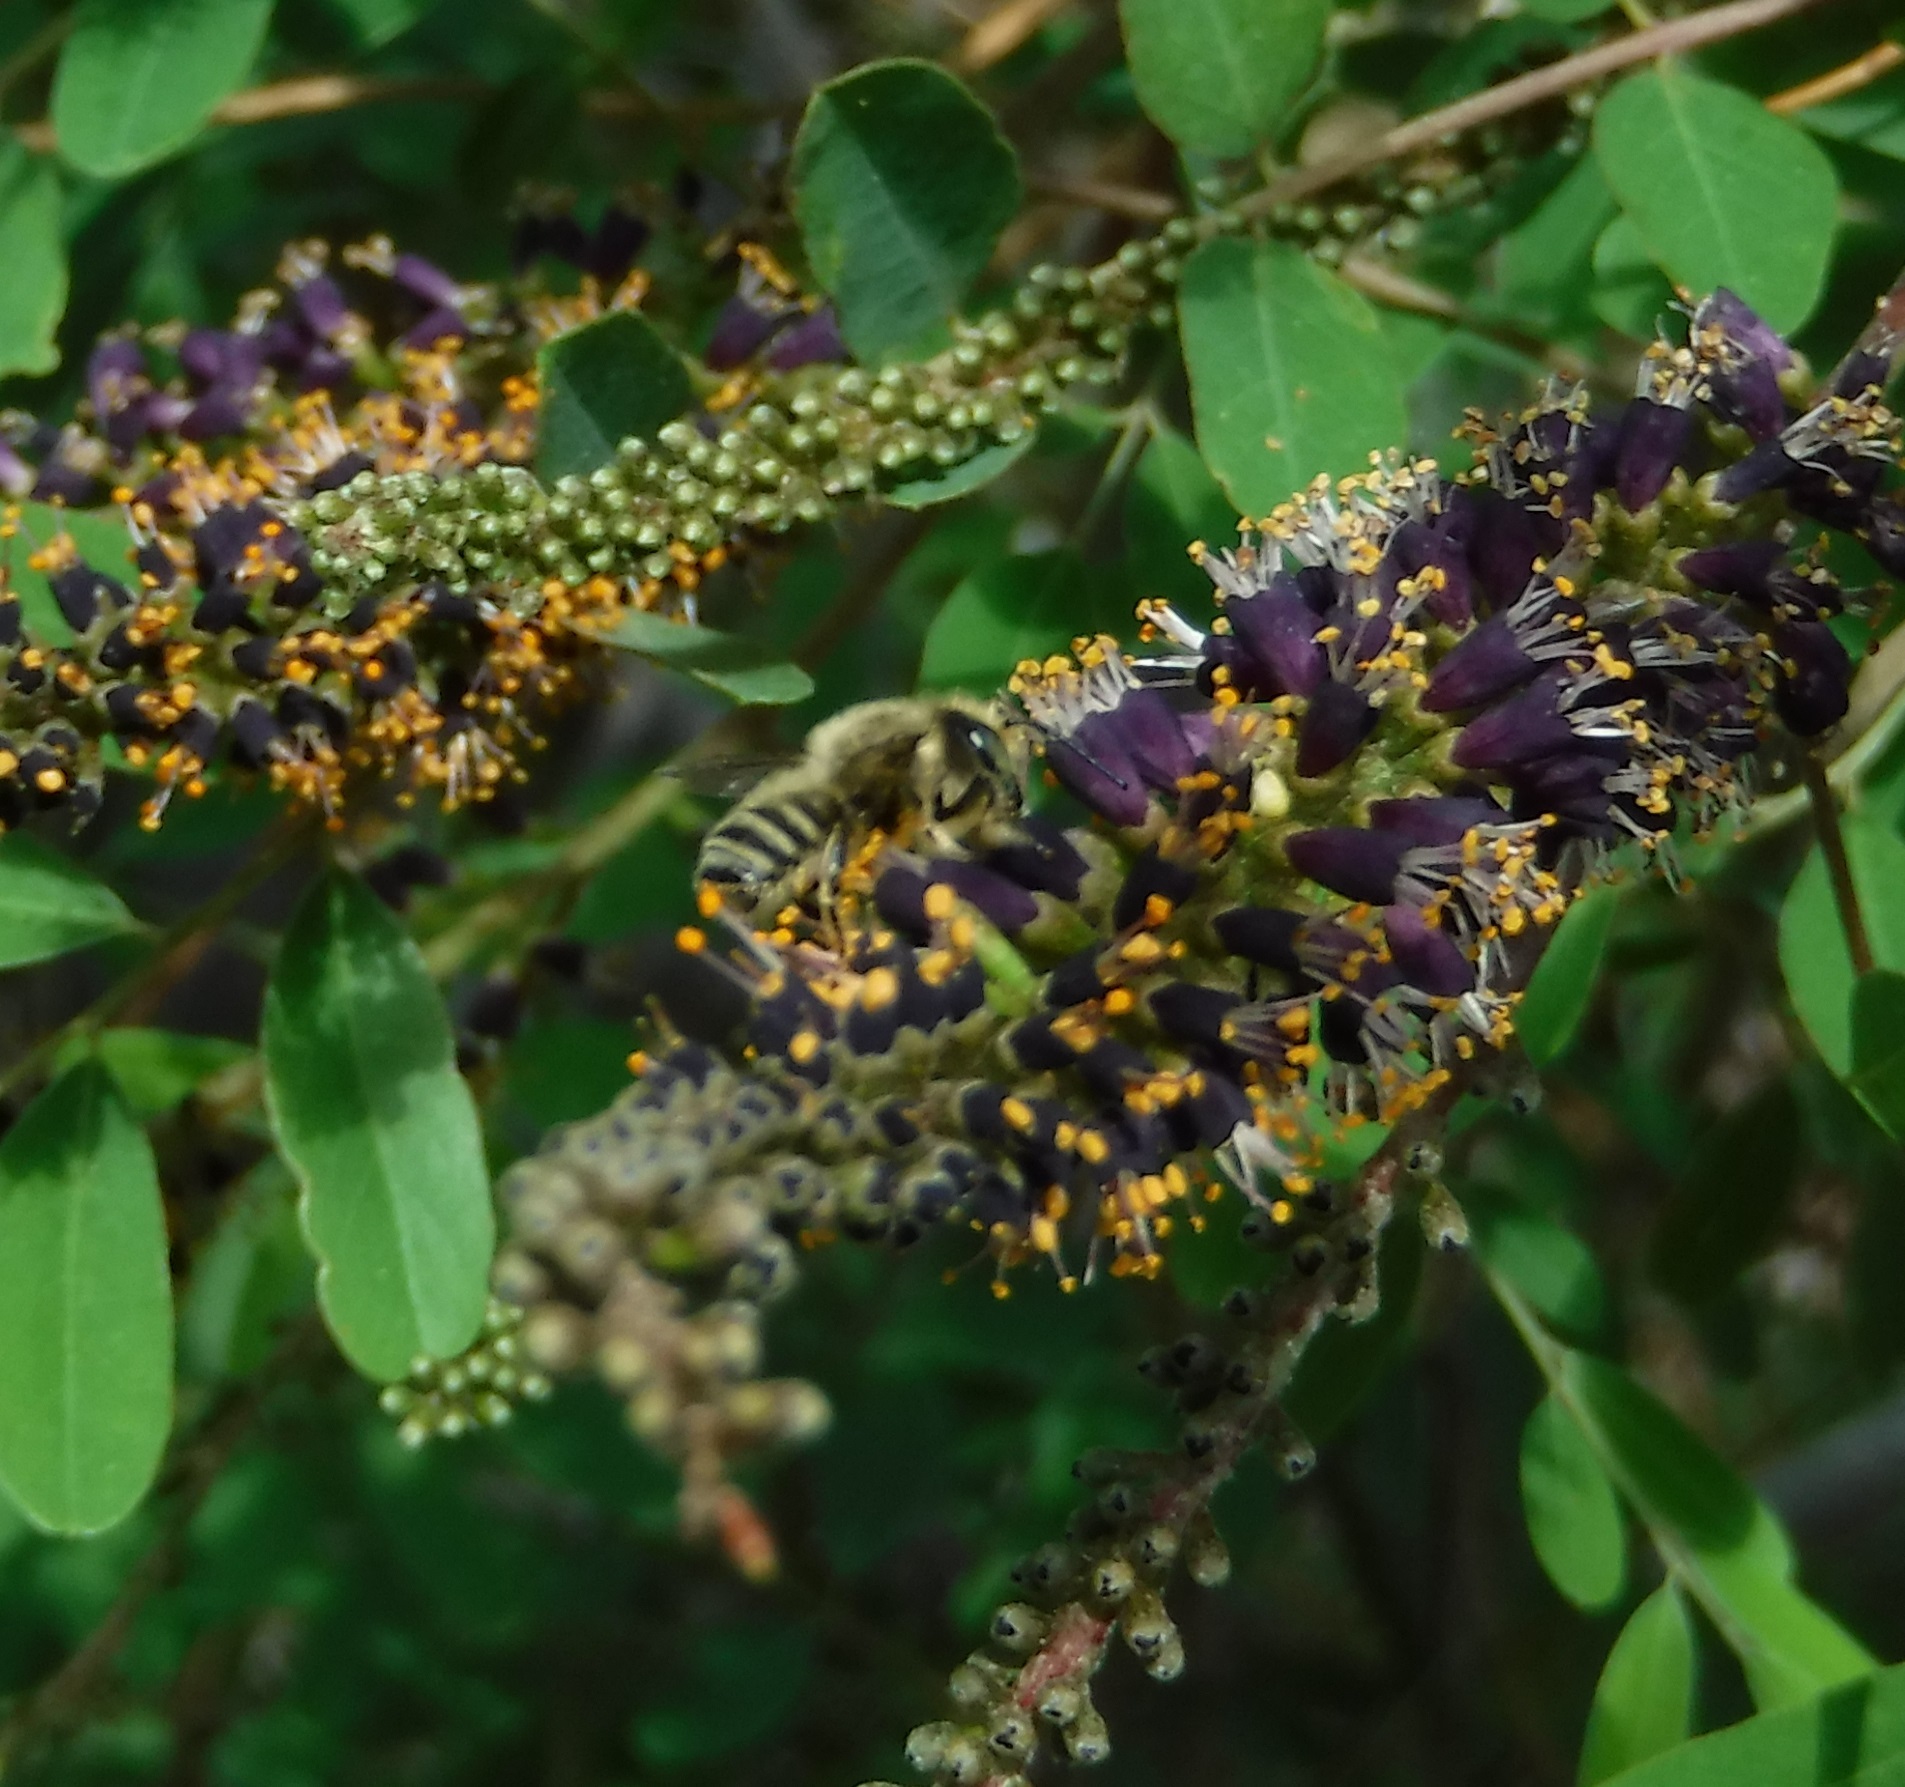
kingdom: Animalia
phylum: Arthropoda
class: Insecta
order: Hymenoptera
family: Megachilidae
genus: Megachile
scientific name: Megachile
